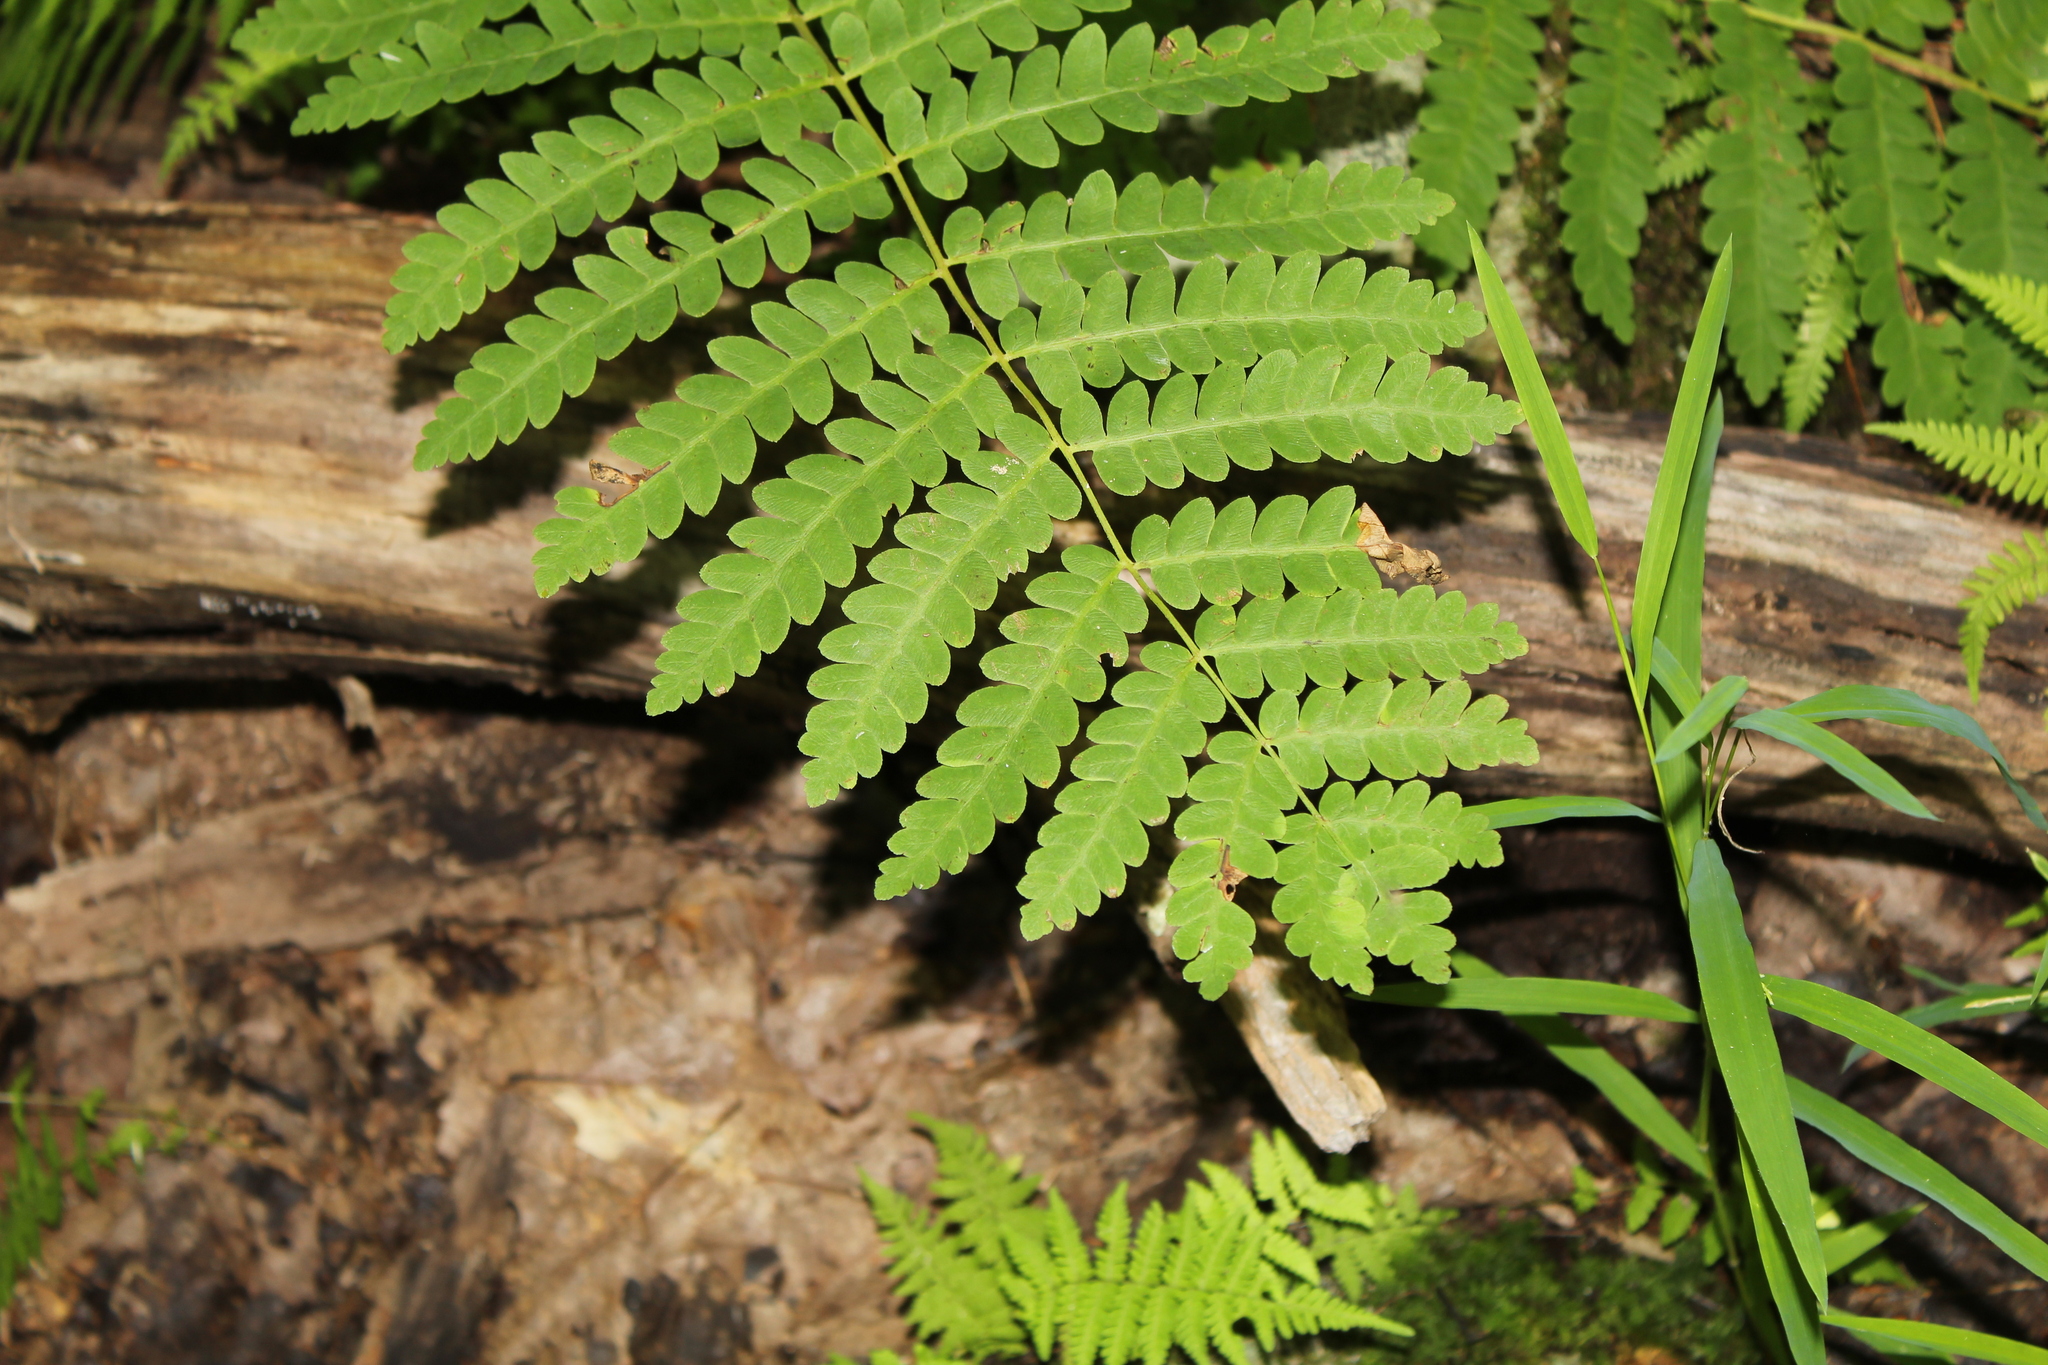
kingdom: Plantae
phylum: Tracheophyta
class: Polypodiopsida
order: Osmundales
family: Osmundaceae
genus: Claytosmunda
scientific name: Claytosmunda claytoniana
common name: Clayton's fern
